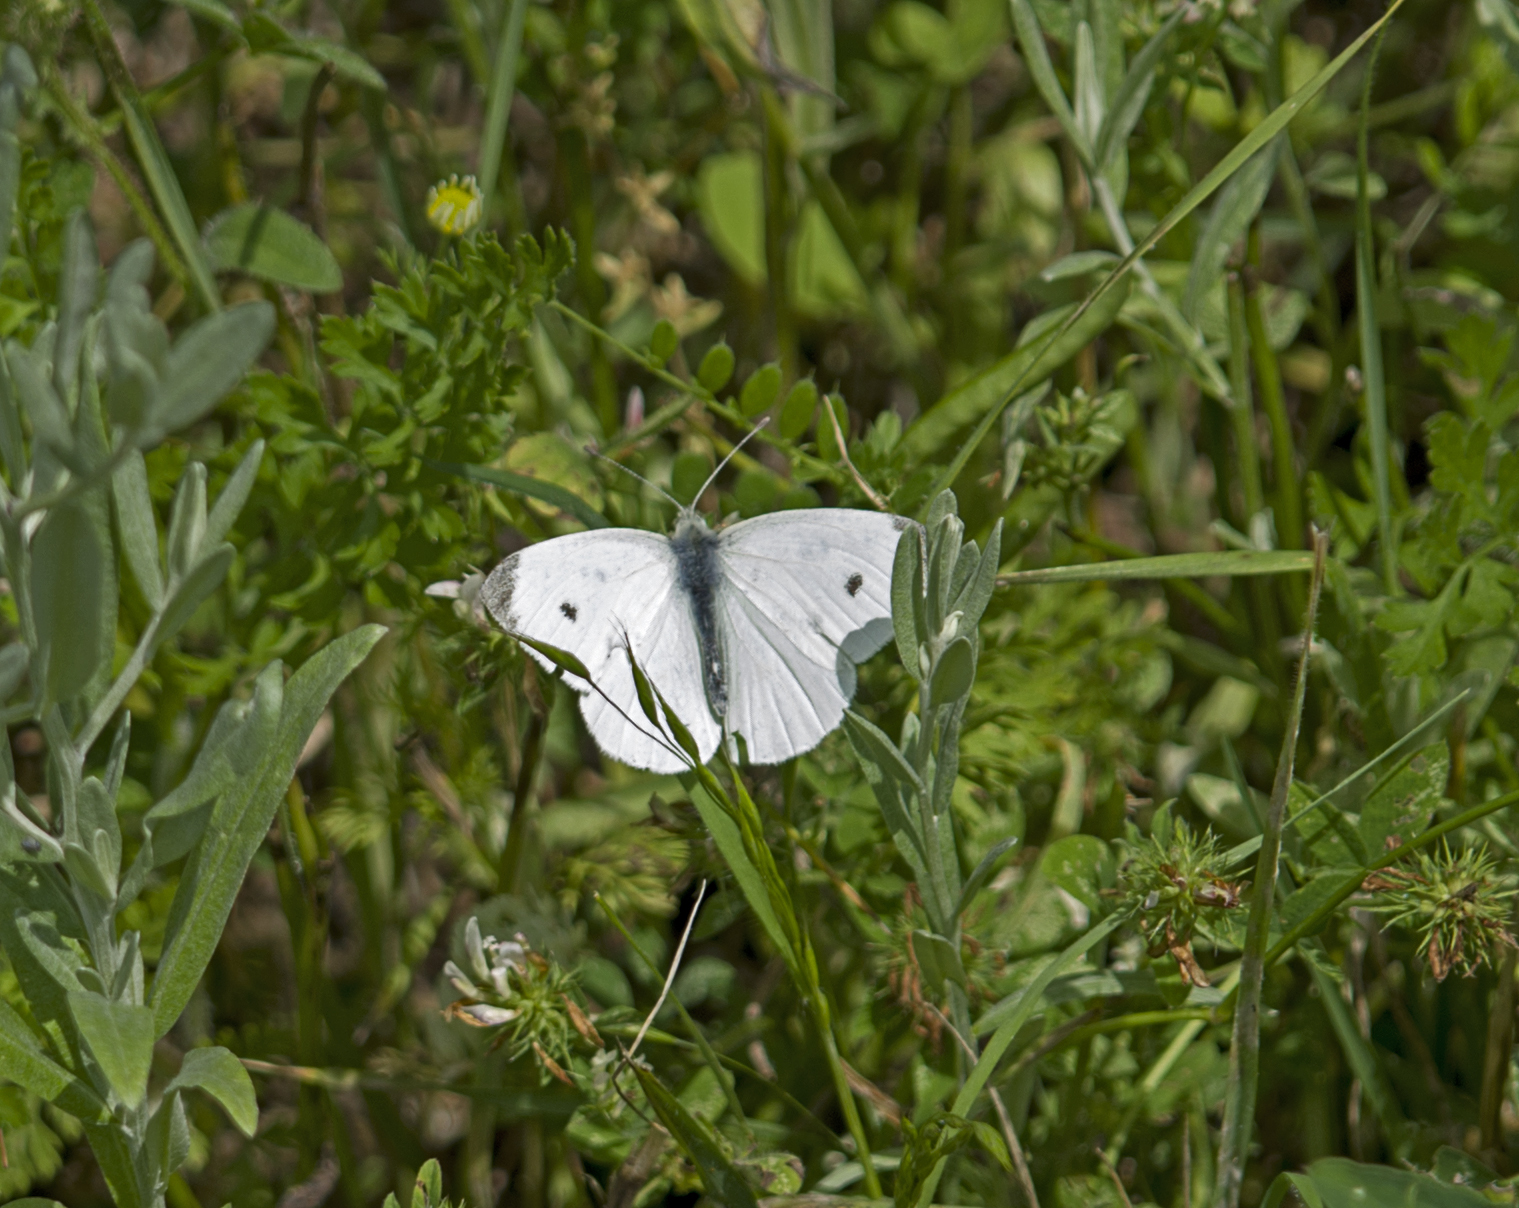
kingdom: Animalia
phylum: Arthropoda
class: Insecta
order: Lepidoptera
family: Pieridae
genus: Pieris
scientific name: Pieris rapae
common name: Small white
